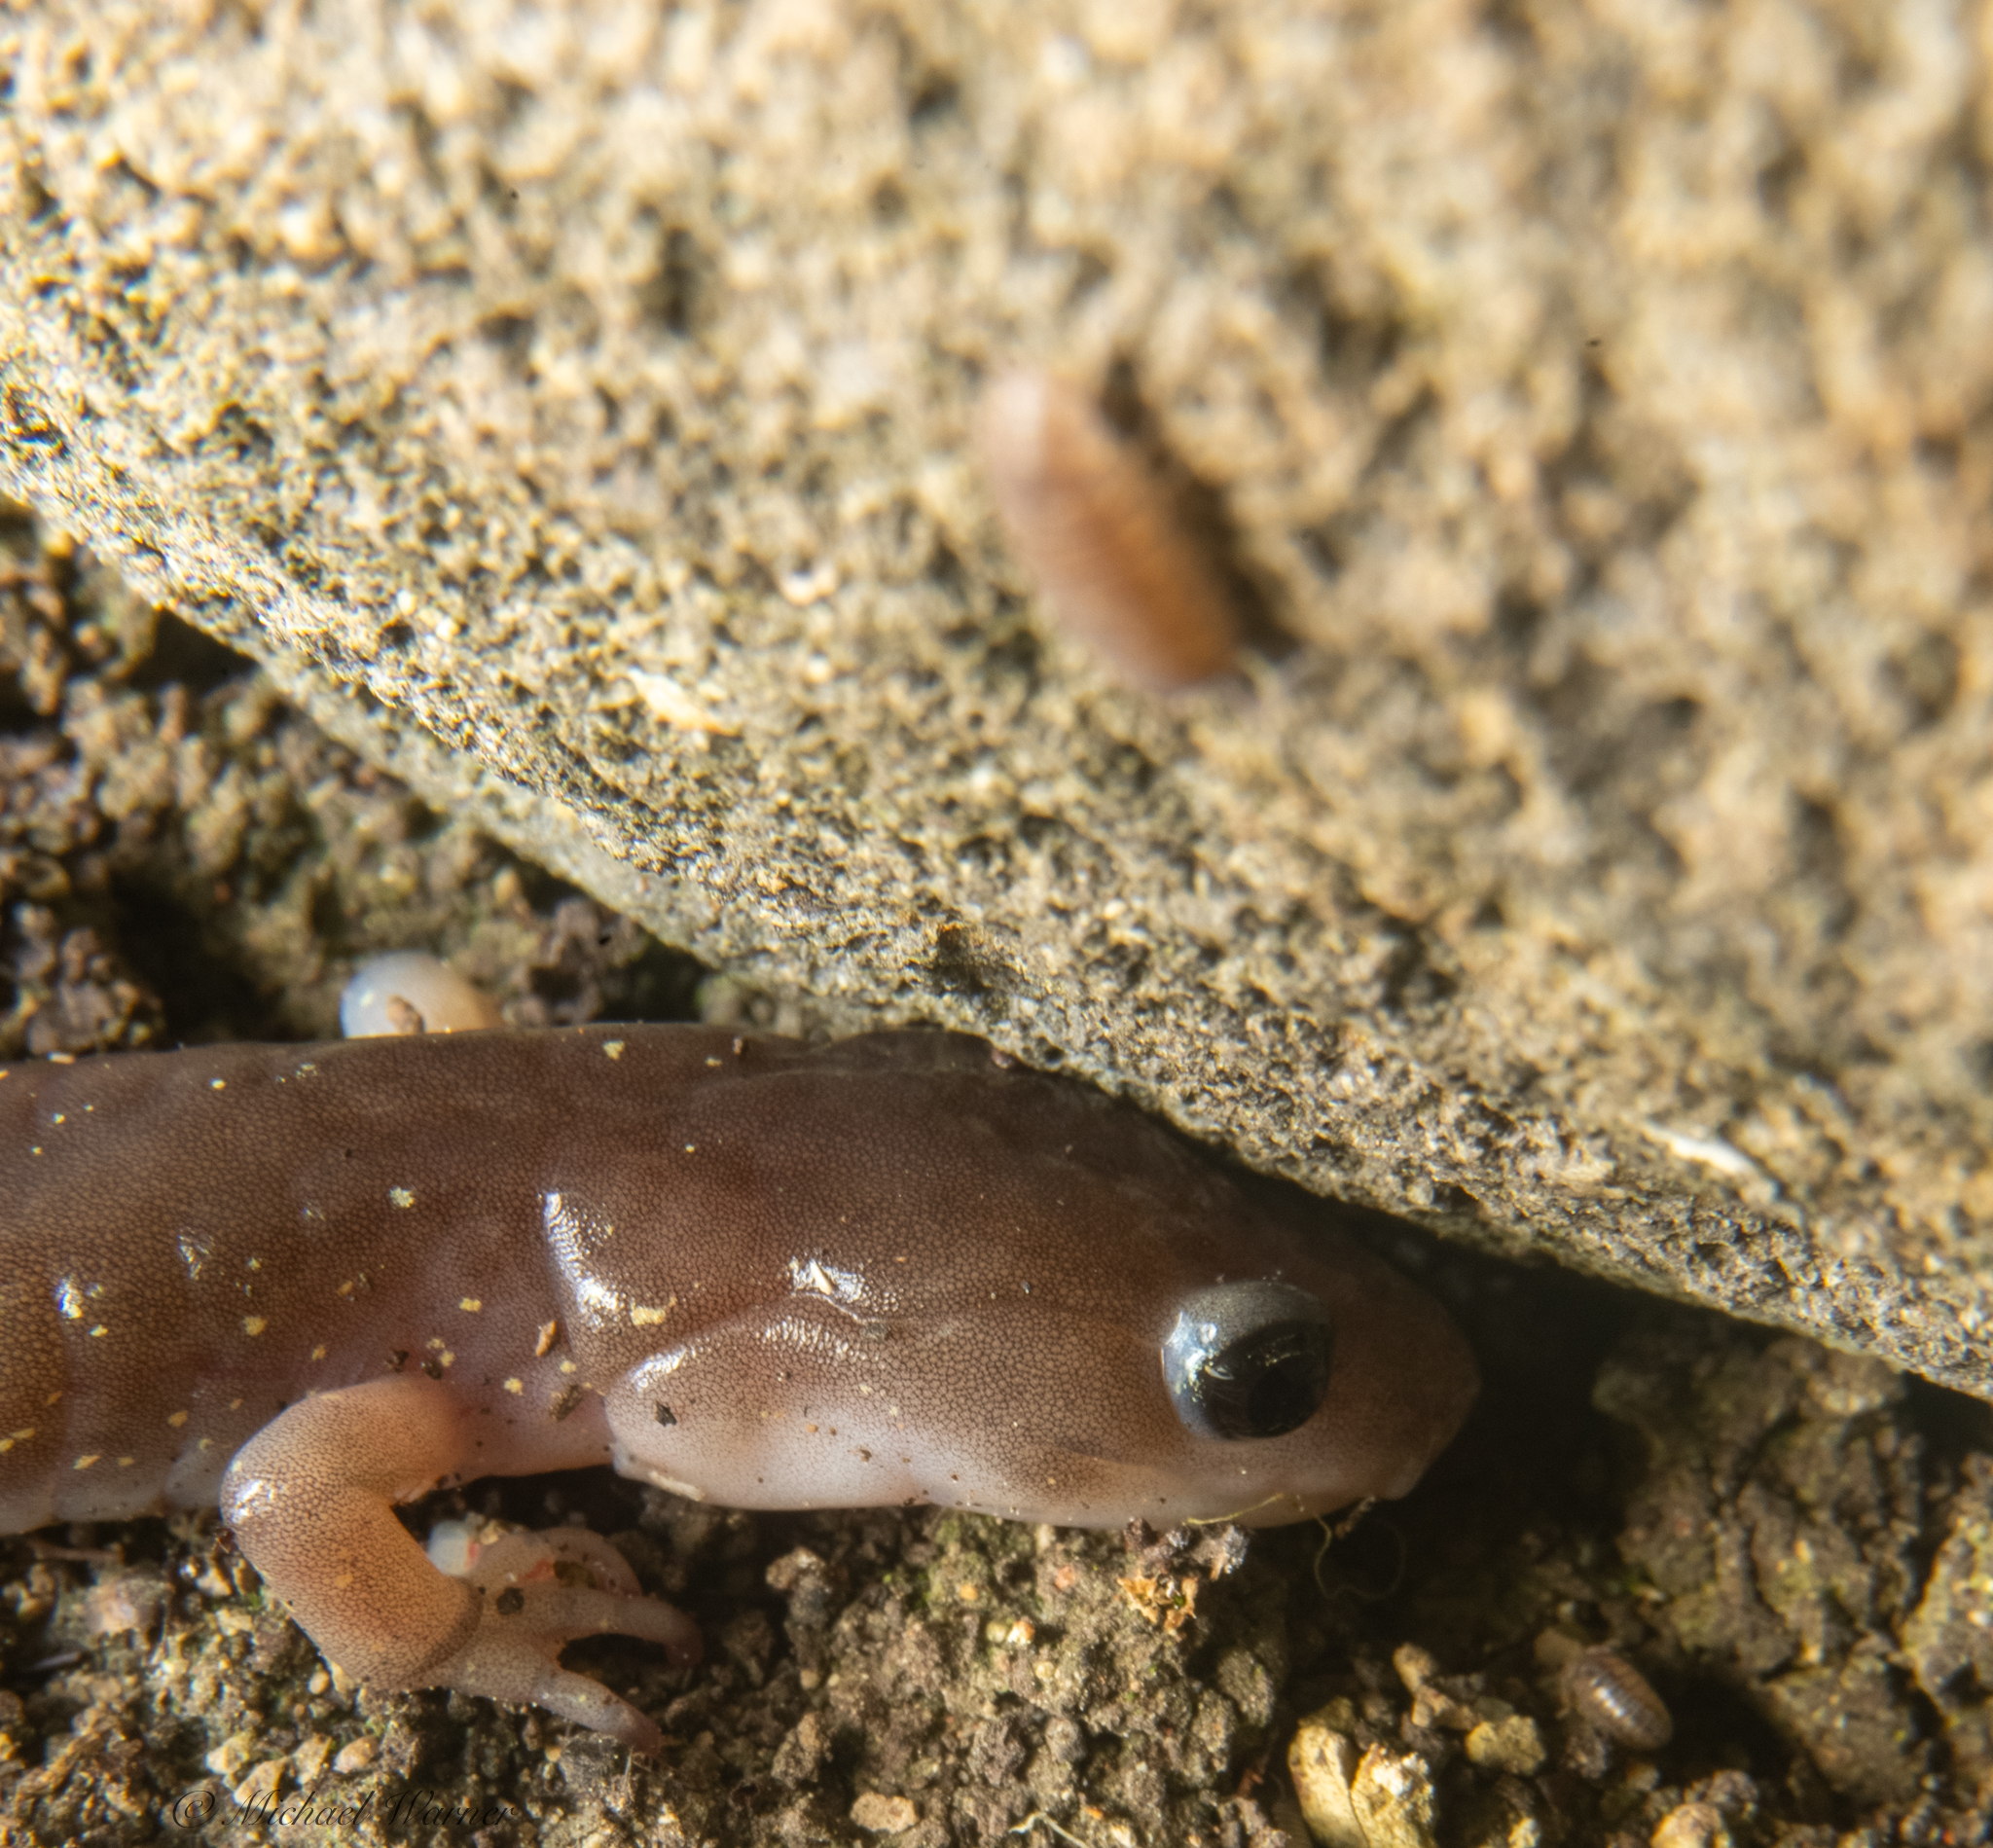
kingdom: Animalia
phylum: Chordata
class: Amphibia
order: Caudata
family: Plethodontidae
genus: Aneides
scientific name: Aneides lugubris
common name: Arboreal salamander
